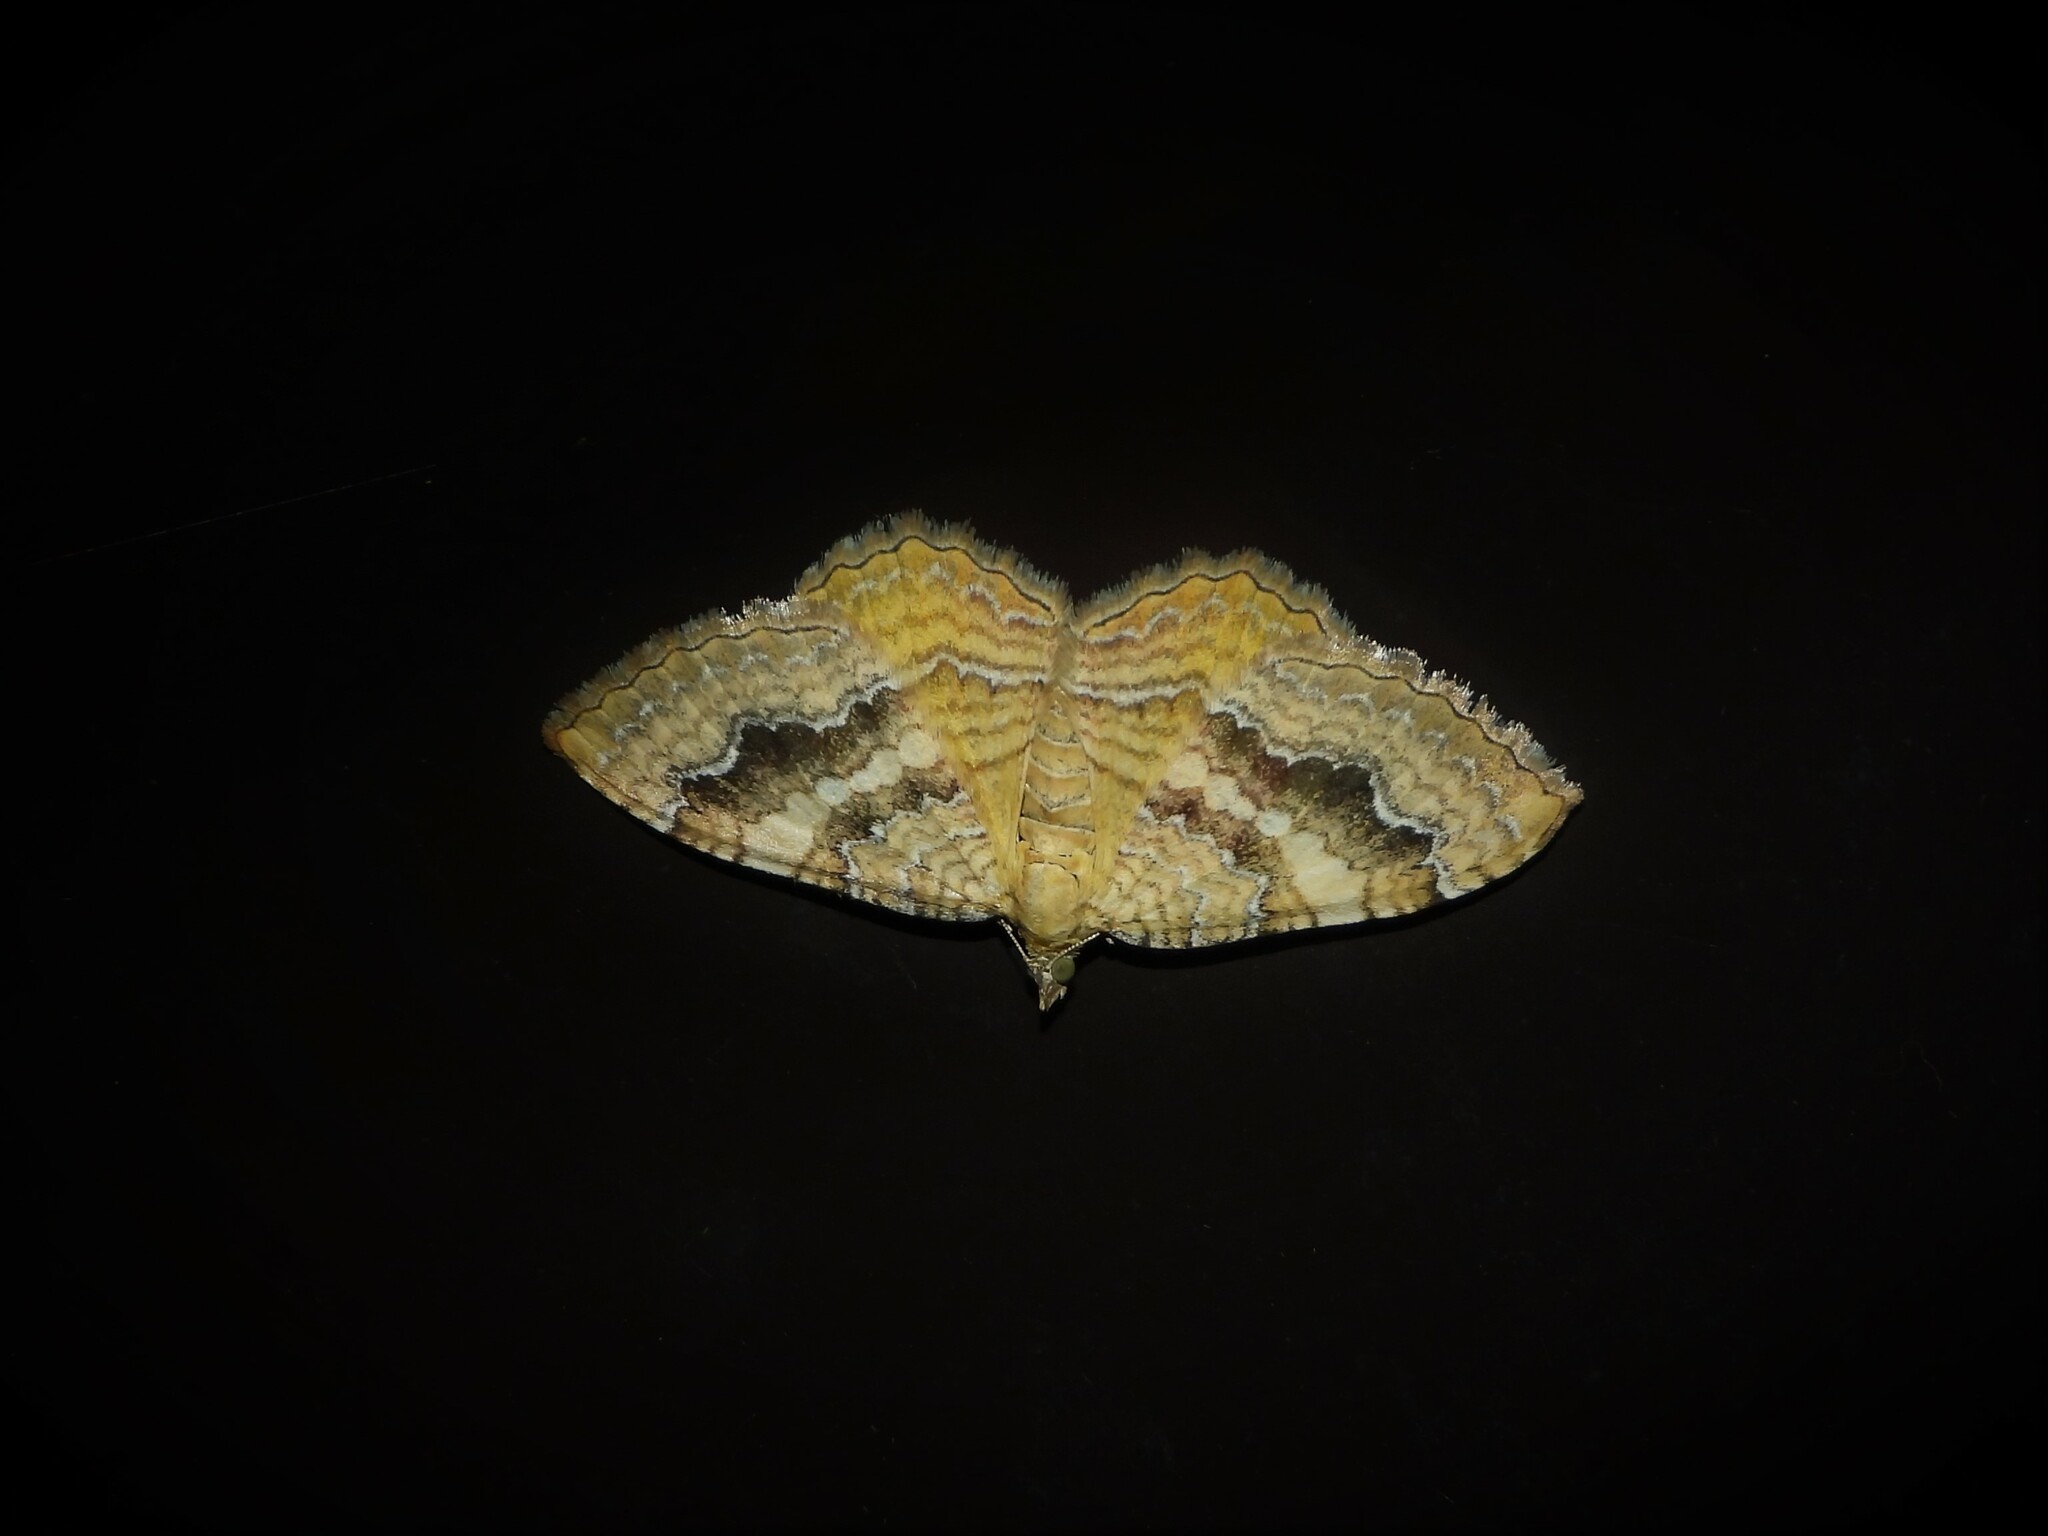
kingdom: Animalia
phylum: Arthropoda
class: Insecta
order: Lepidoptera
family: Geometridae
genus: Camptogramma
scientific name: Camptogramma bilineata
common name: Yellow shell
